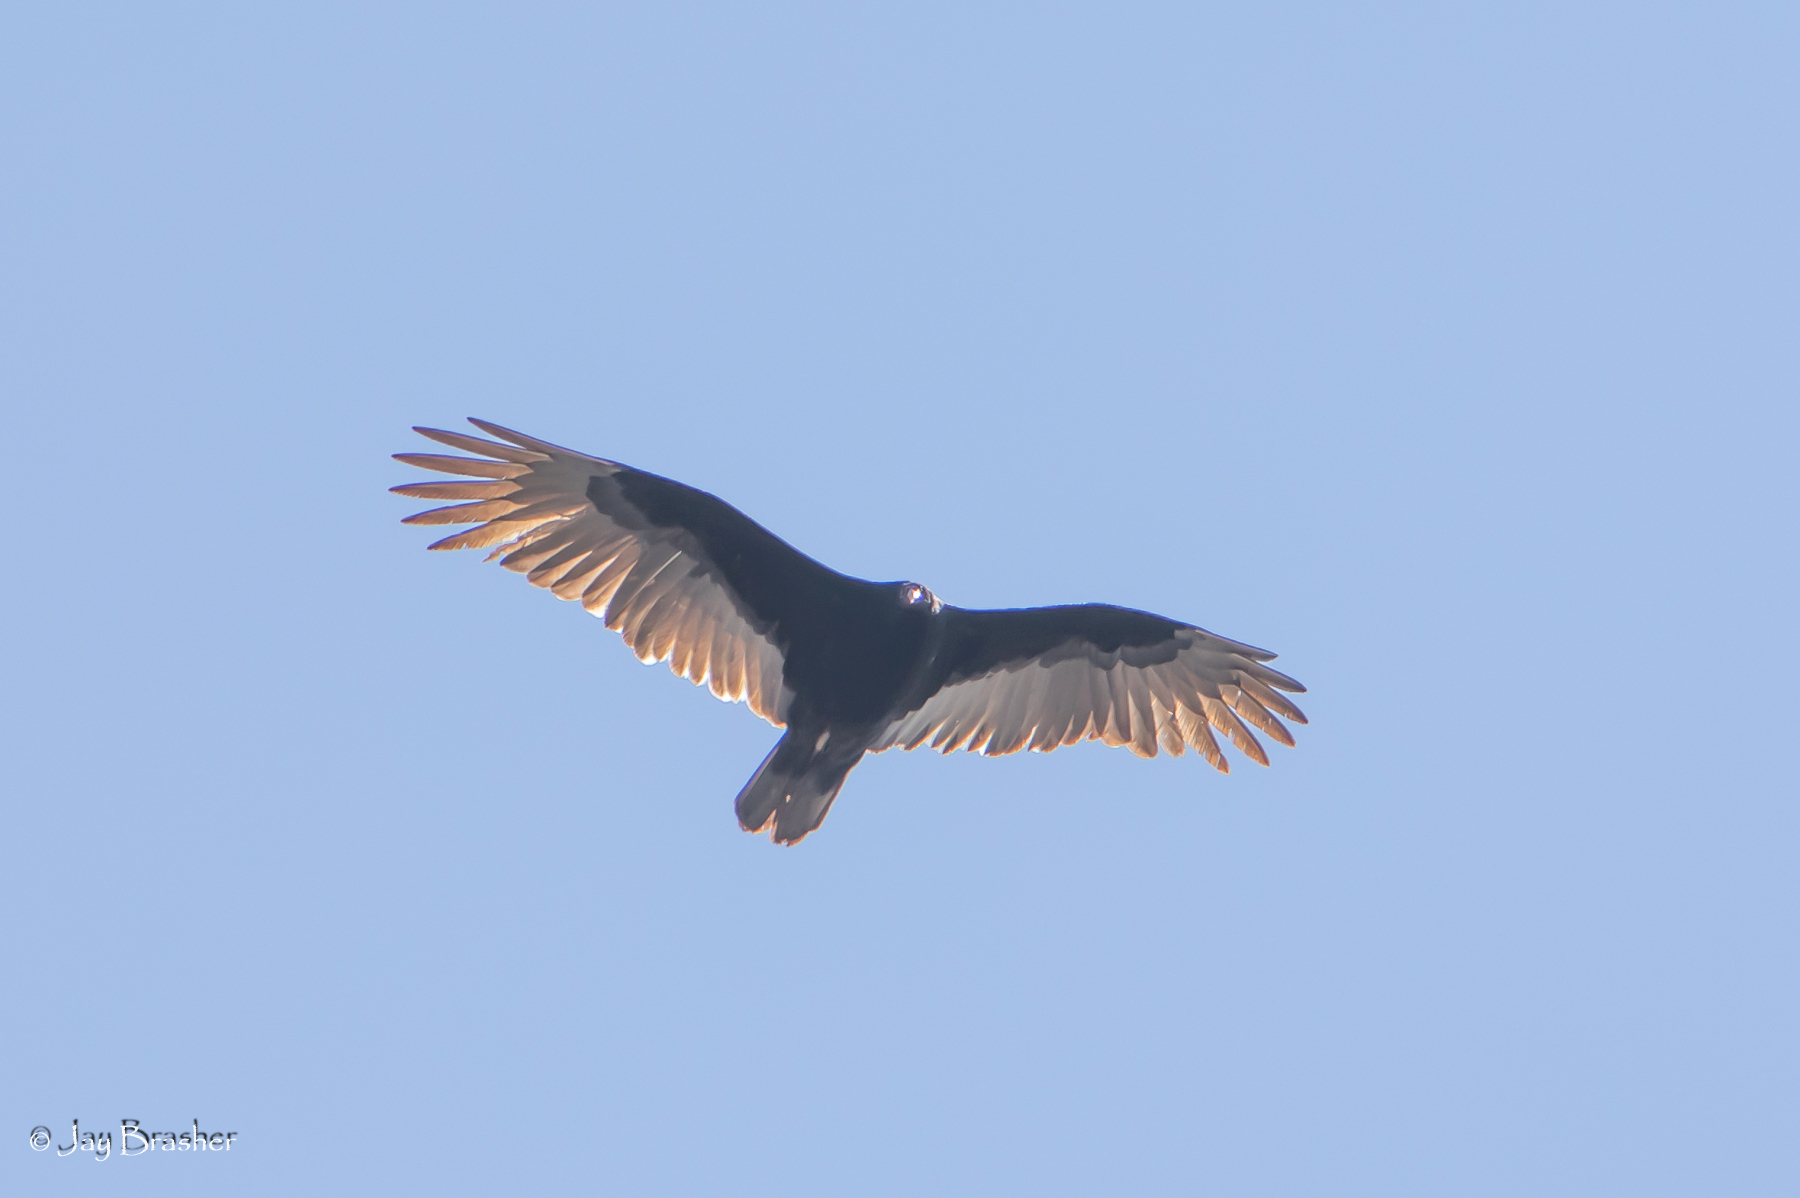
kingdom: Animalia
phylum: Chordata
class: Aves
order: Accipitriformes
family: Cathartidae
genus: Cathartes
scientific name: Cathartes aura
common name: Turkey vulture
